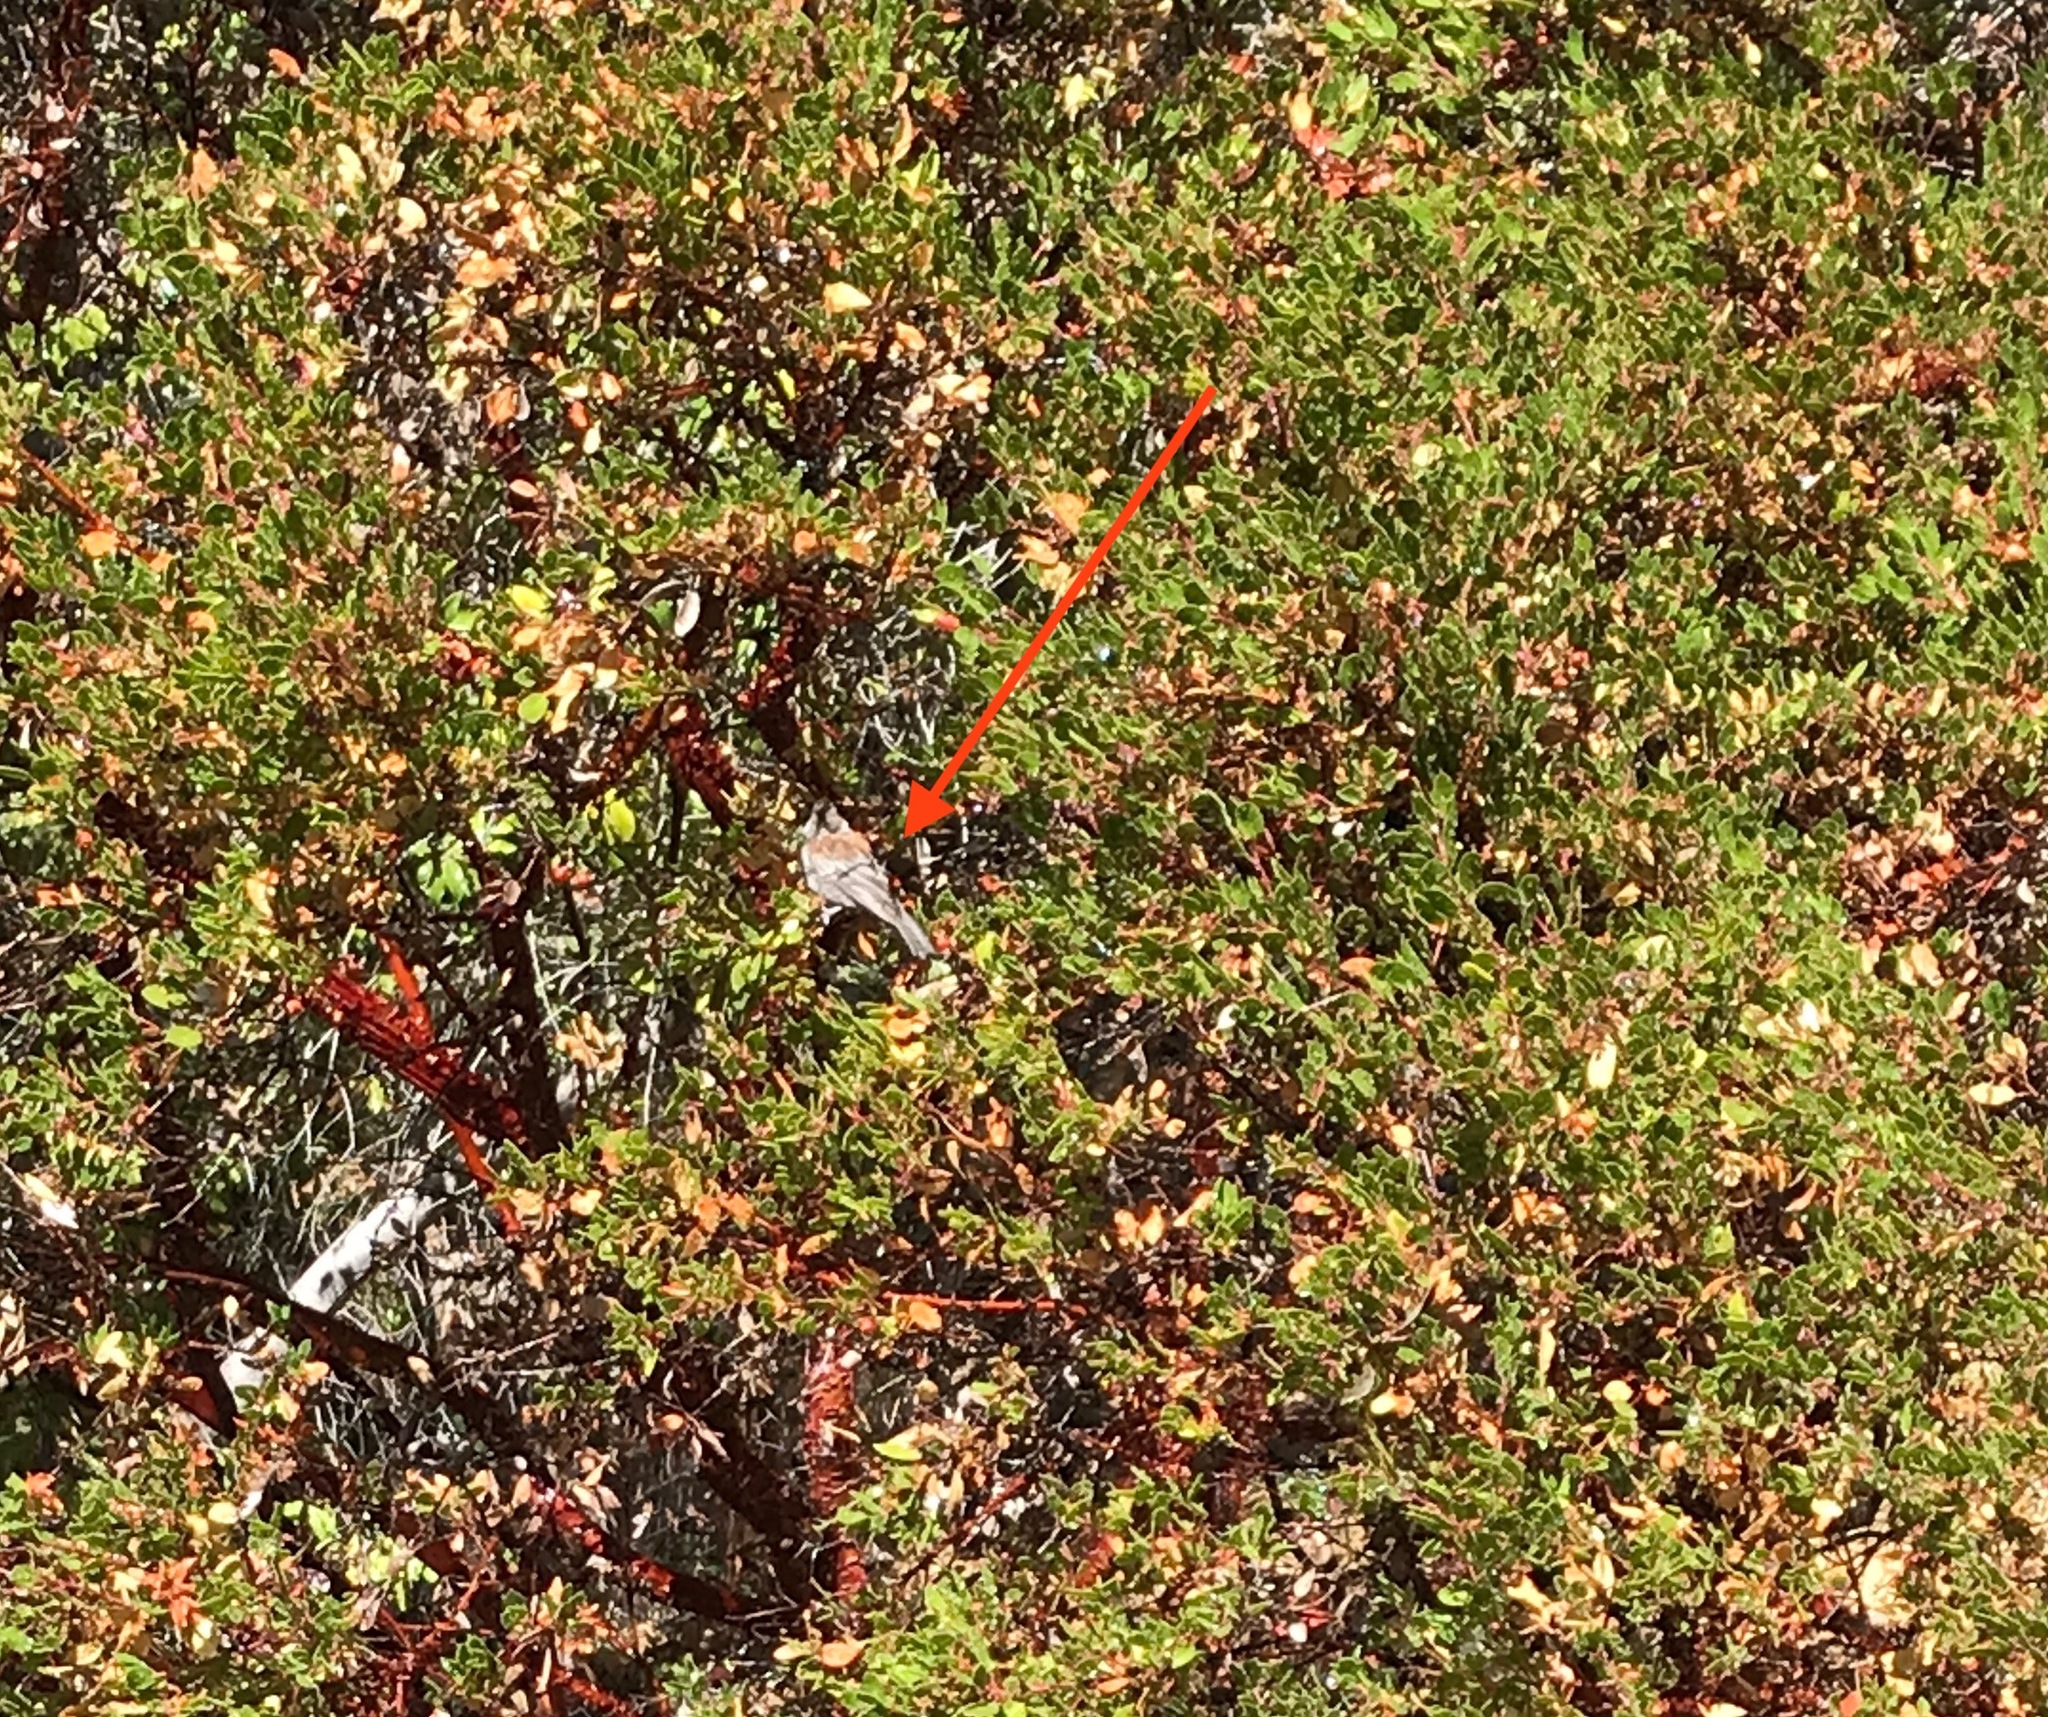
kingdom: Animalia
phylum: Chordata
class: Aves
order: Passeriformes
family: Paridae
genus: Poecile
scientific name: Poecile rufescens
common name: Chestnut-backed chickadee
